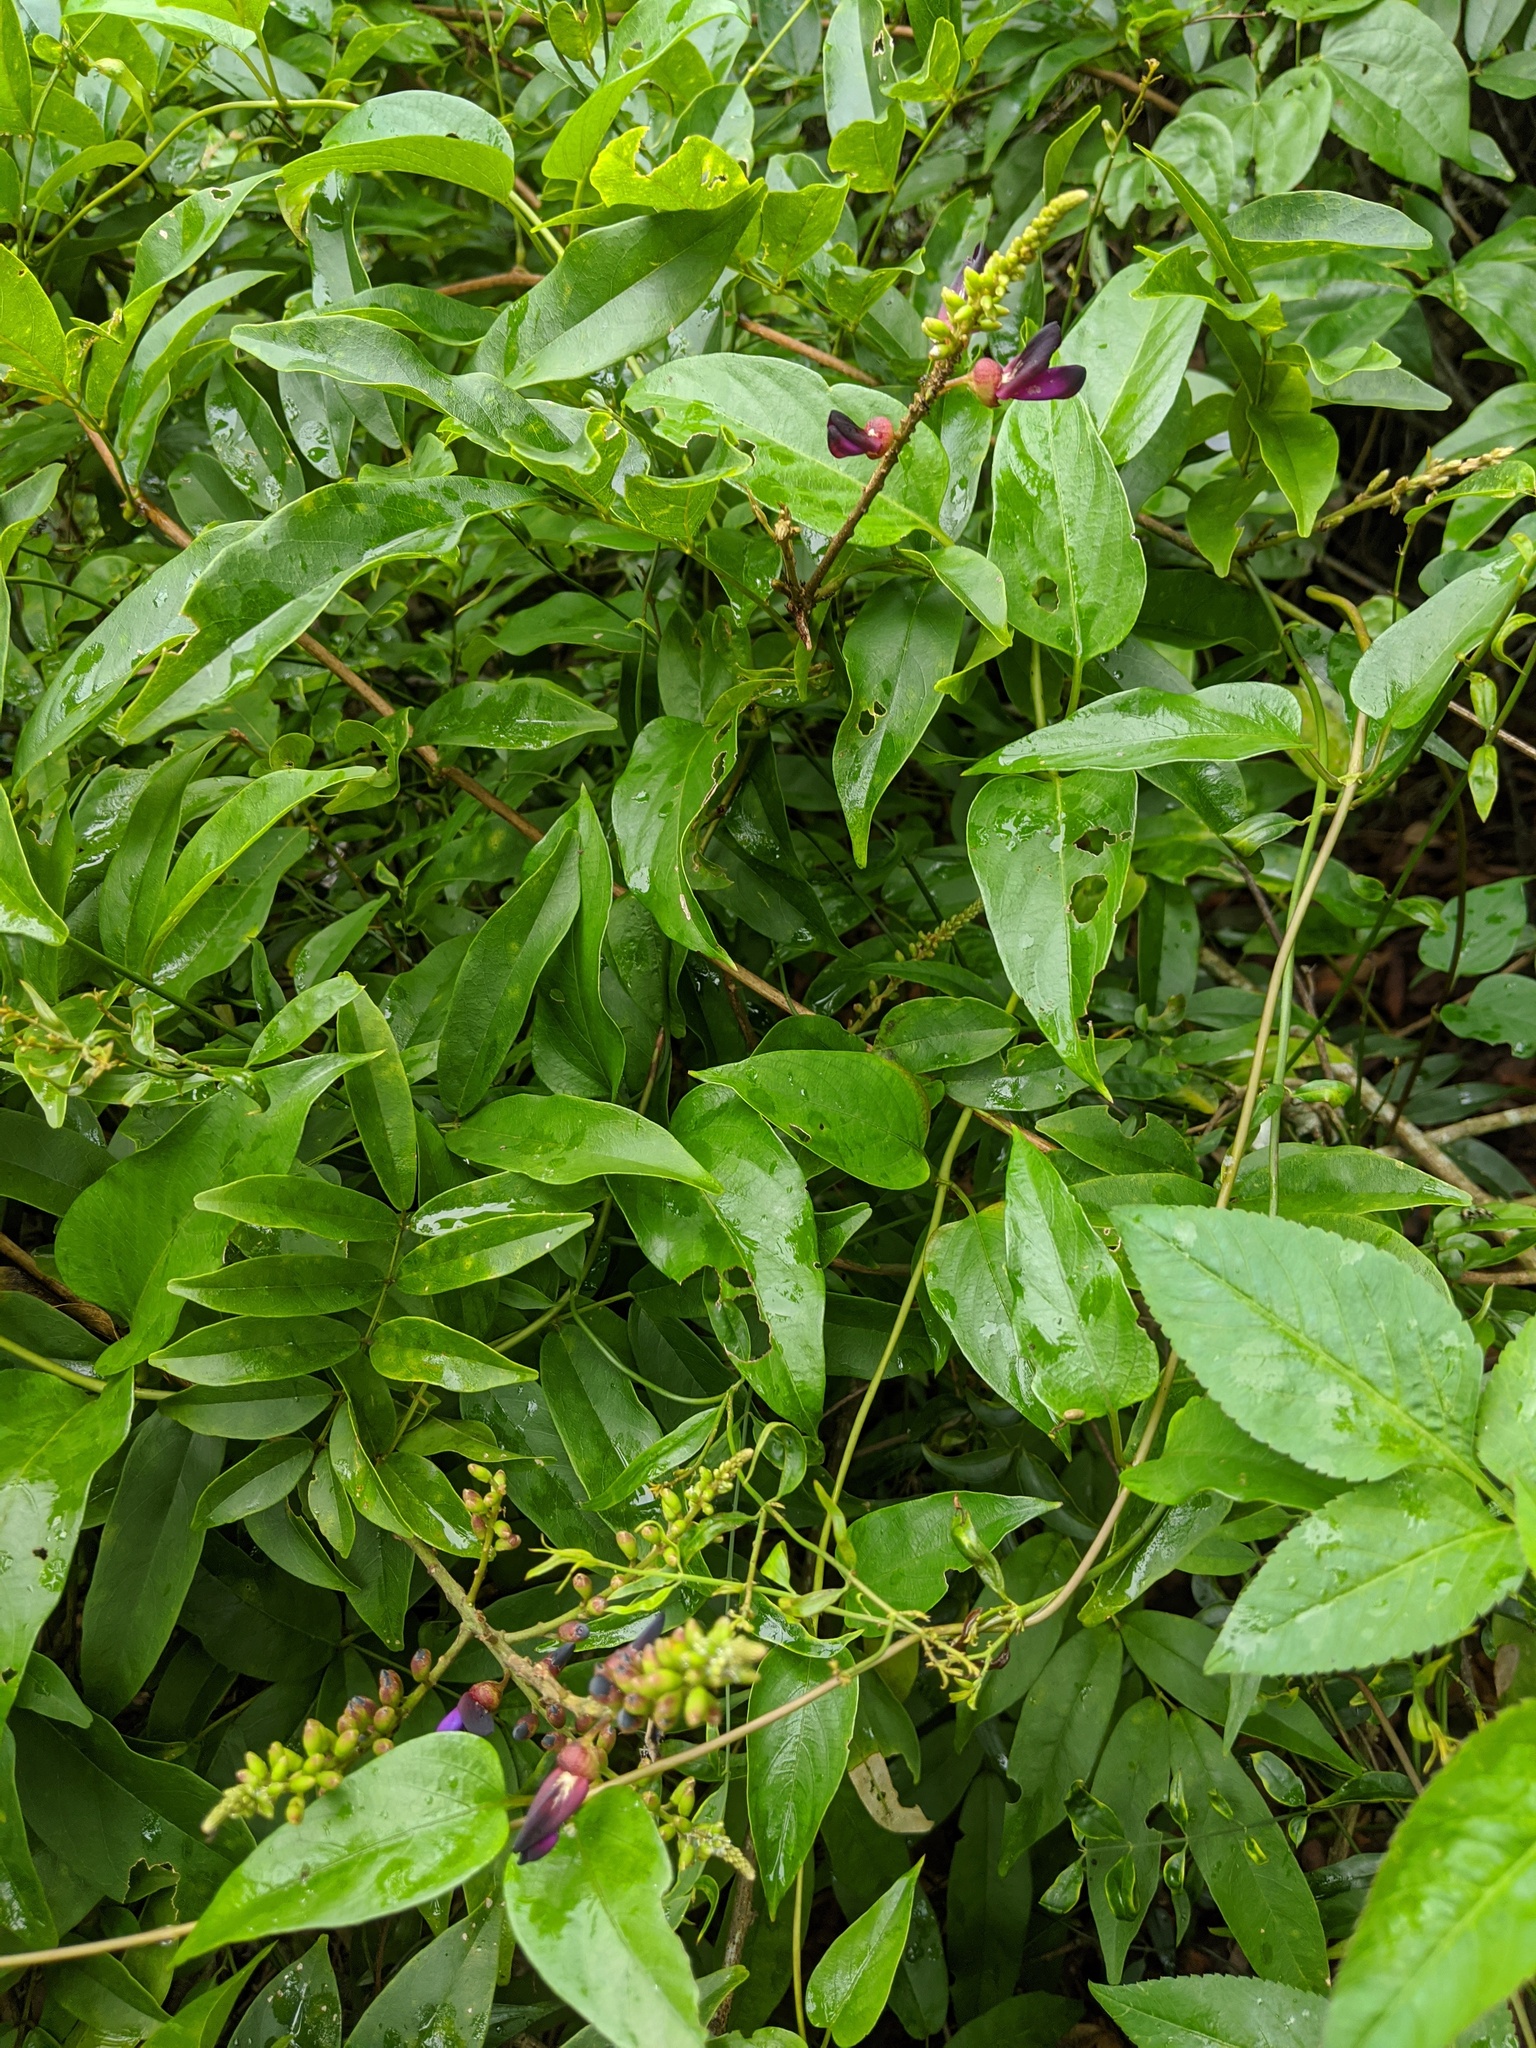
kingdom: Plantae
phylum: Tracheophyta
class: Magnoliopsida
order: Fabales
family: Fabaceae
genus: Wisteriopsis
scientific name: Wisteriopsis reticulata
